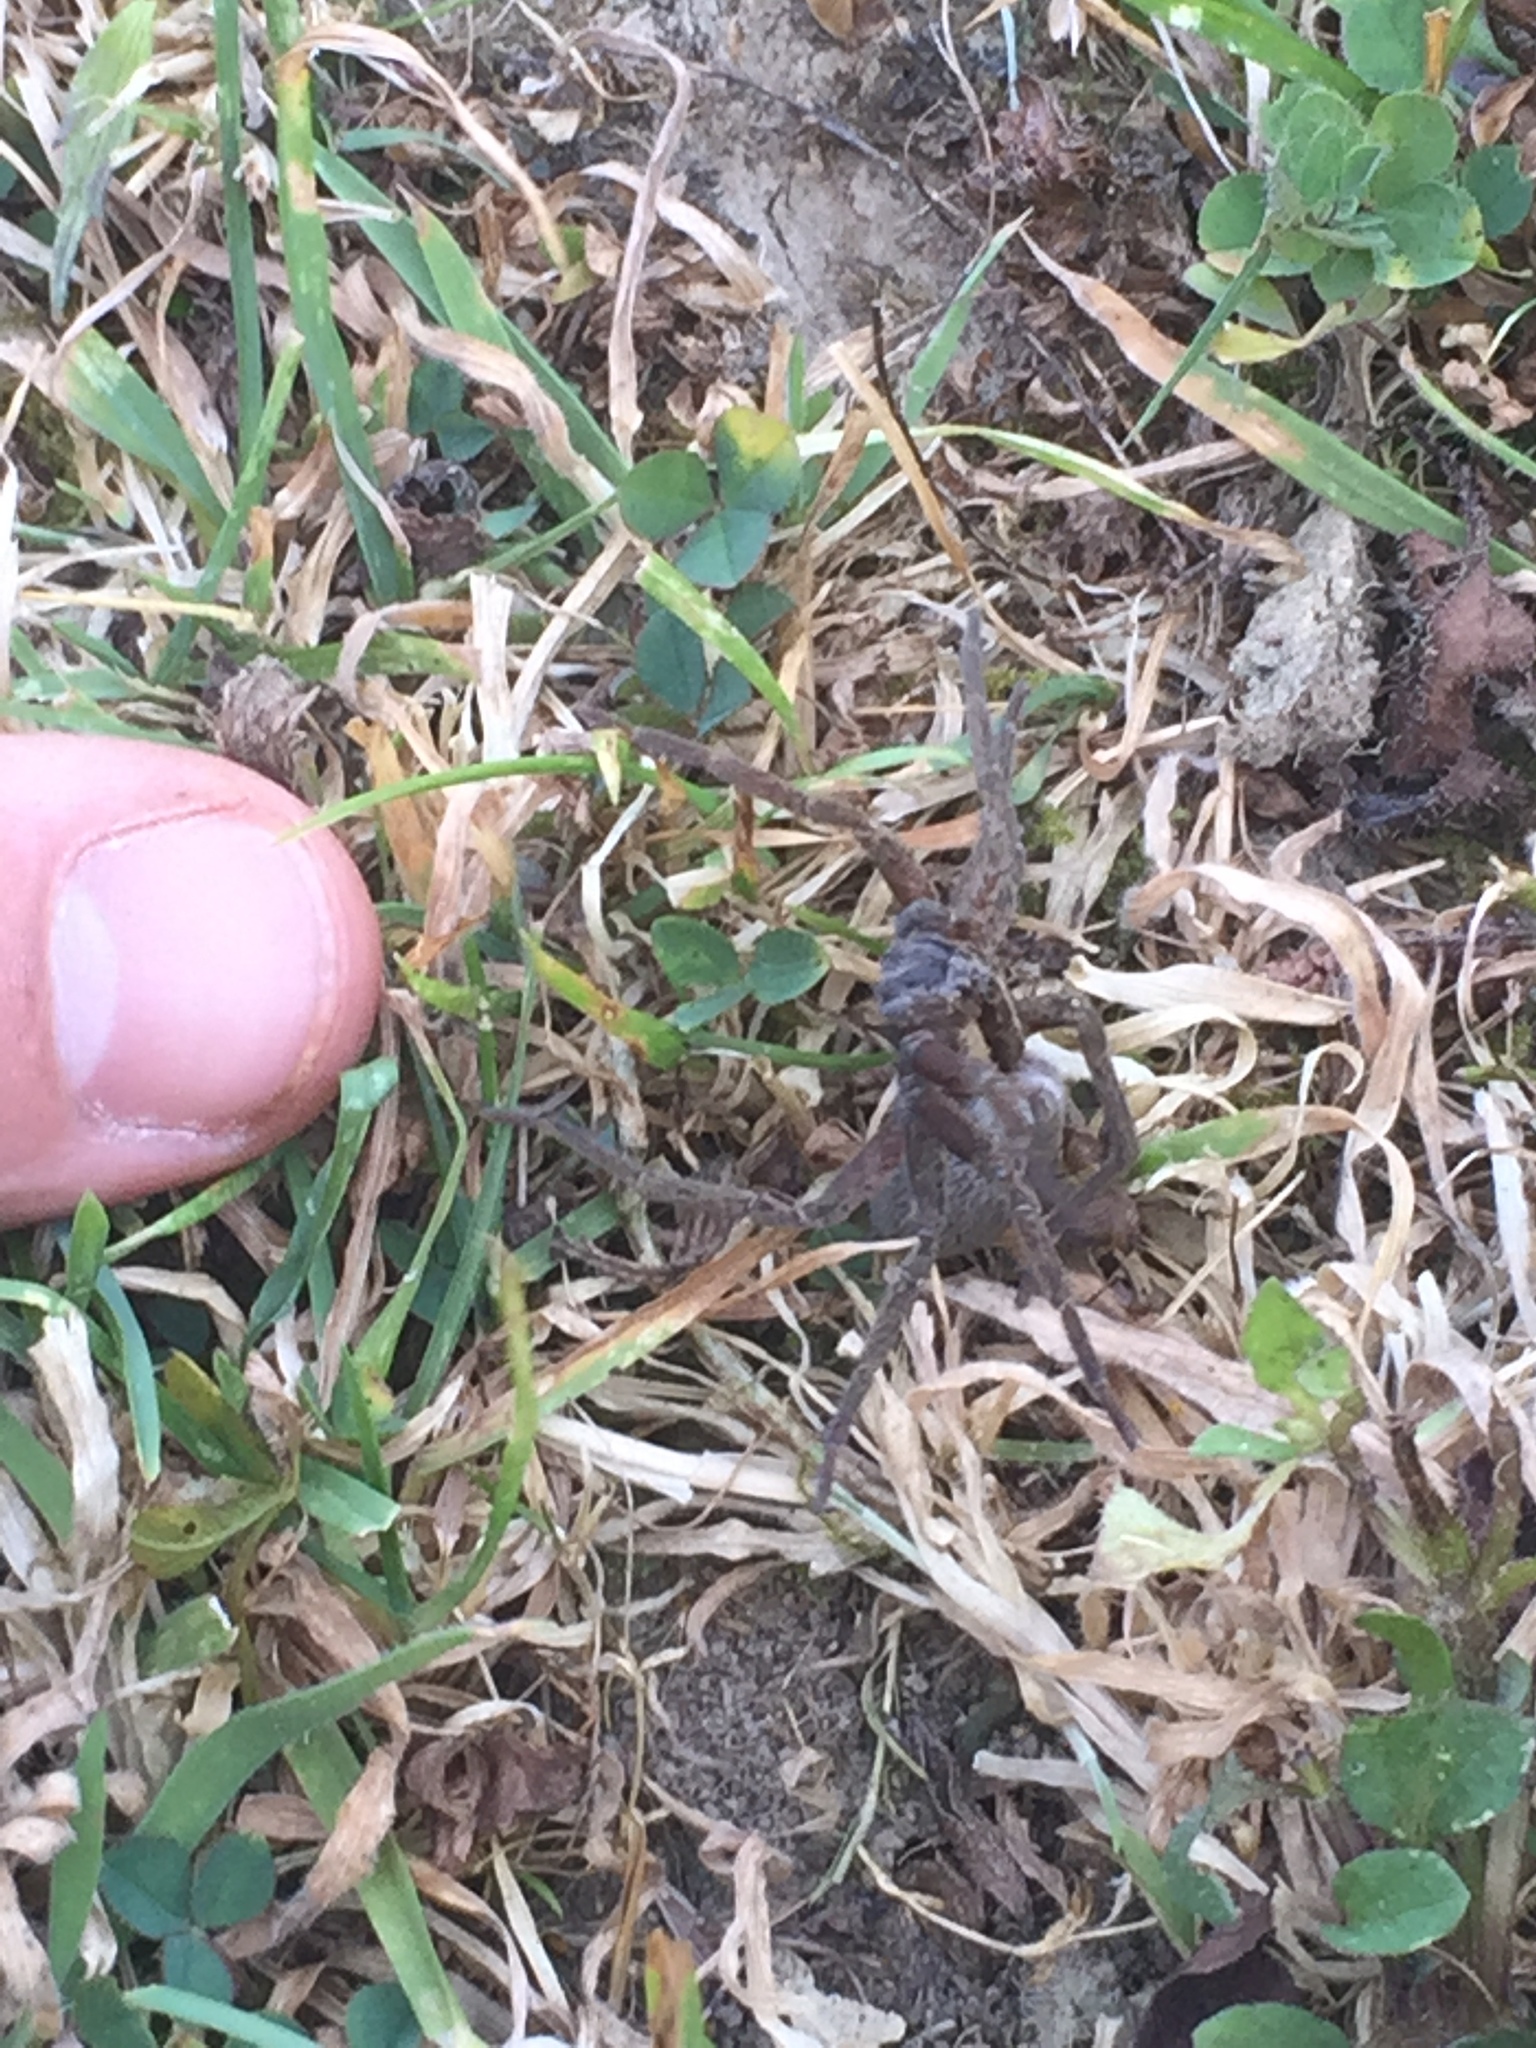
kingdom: Animalia
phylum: Arthropoda
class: Arachnida
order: Araneae
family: Pisauridae
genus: Dolomedes
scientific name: Dolomedes minor
